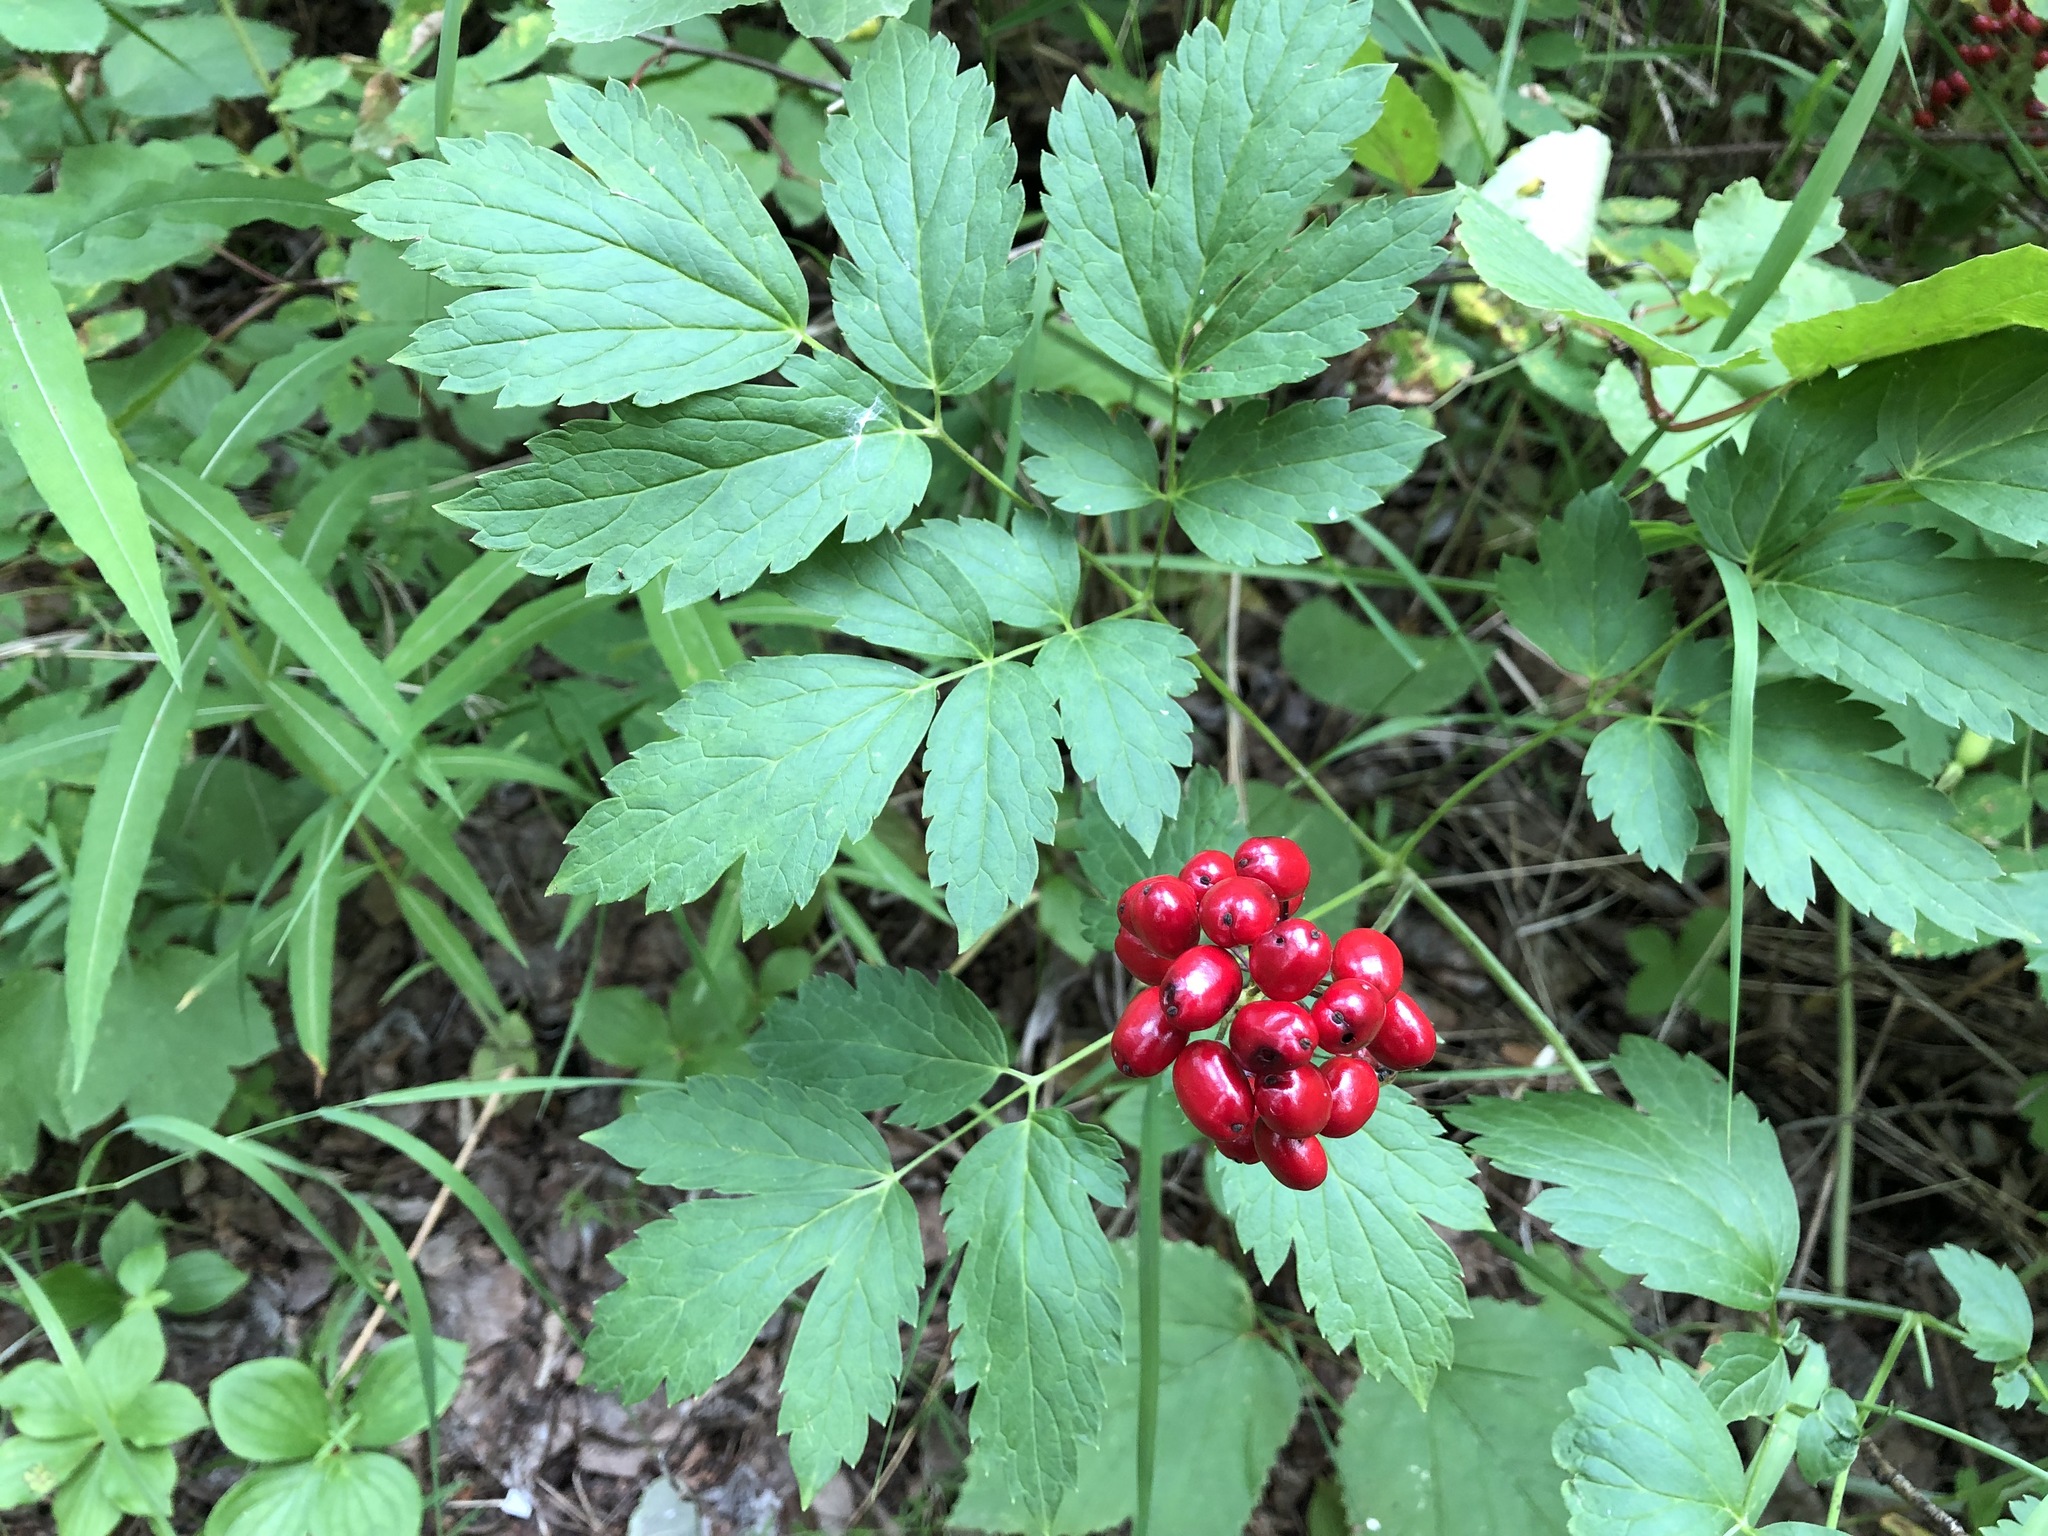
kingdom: Plantae
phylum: Tracheophyta
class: Magnoliopsida
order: Ranunculales
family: Ranunculaceae
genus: Actaea
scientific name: Actaea rubra
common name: Red baneberry
